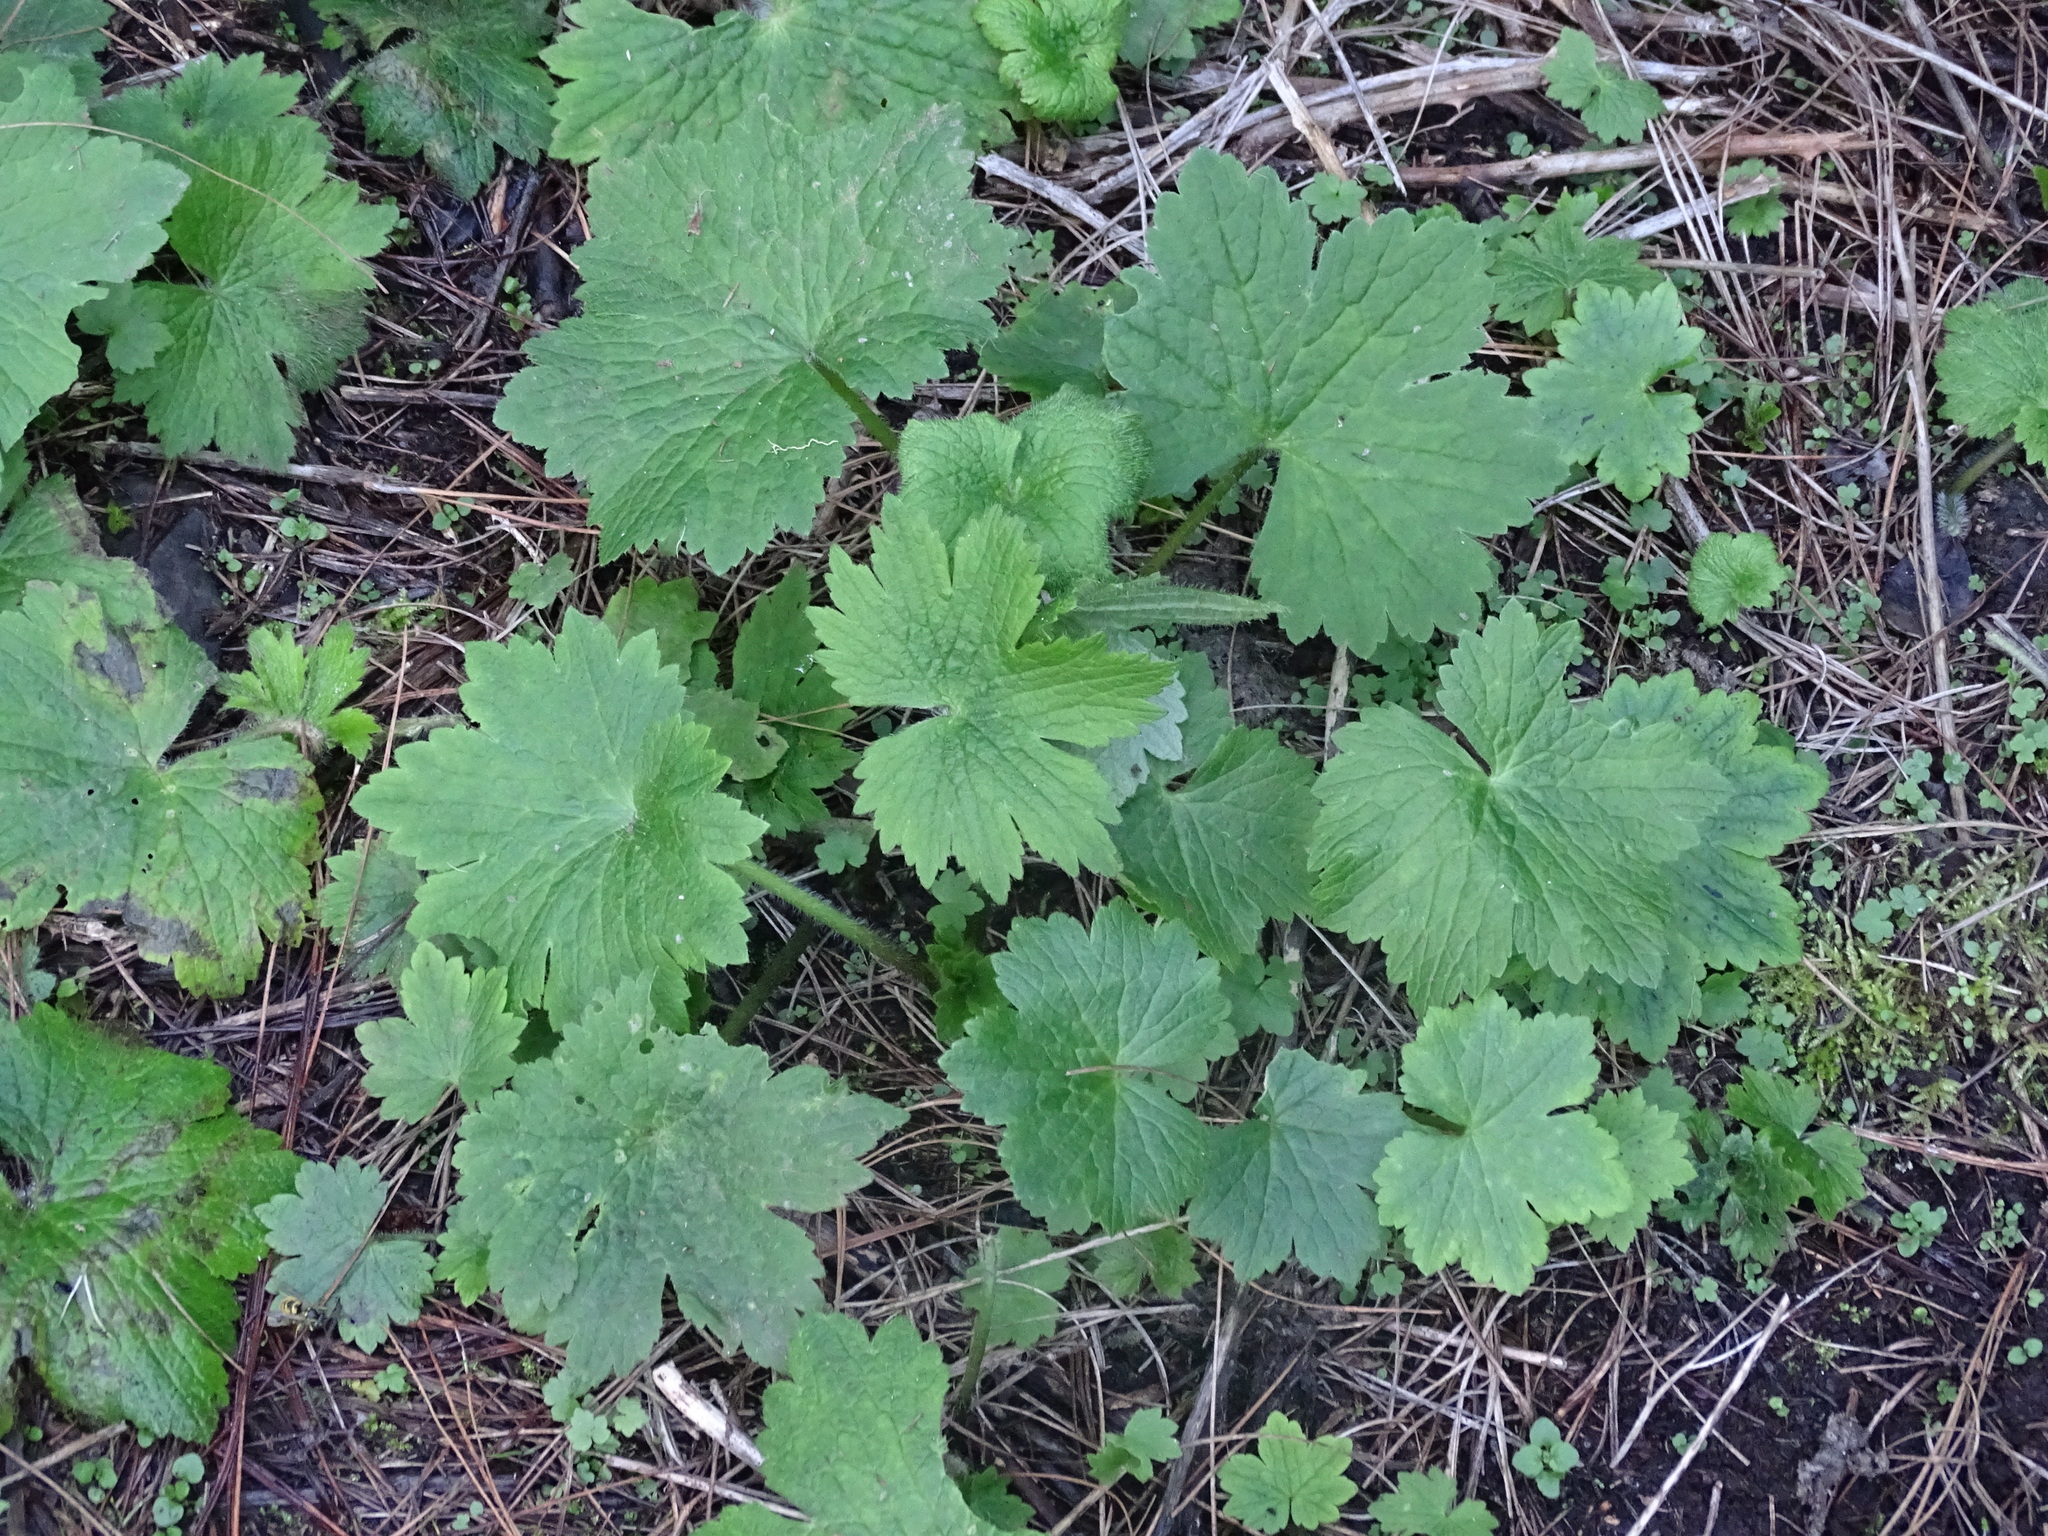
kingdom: Plantae
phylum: Tracheophyta
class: Magnoliopsida
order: Ranunculales
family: Ranunculaceae
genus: Ranunculus
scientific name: Ranunculus cortusifolius
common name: Azores buttercup
